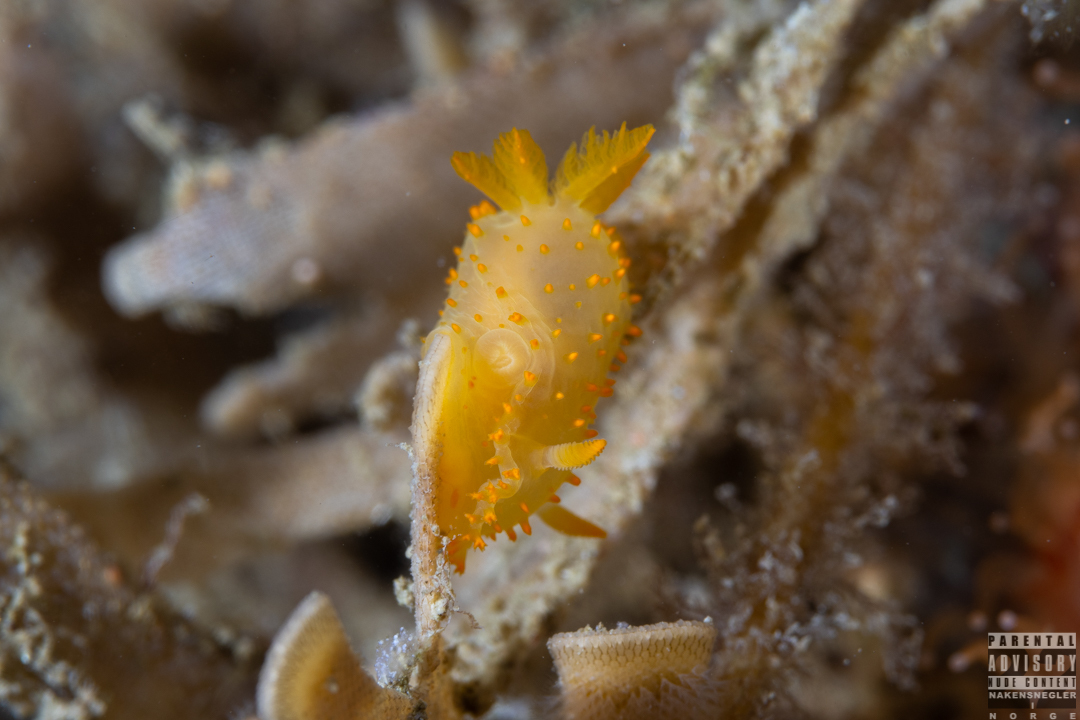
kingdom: Animalia
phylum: Mollusca
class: Gastropoda
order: Nudibranchia
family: Polyceridae
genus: Crimora
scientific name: Crimora papillata
